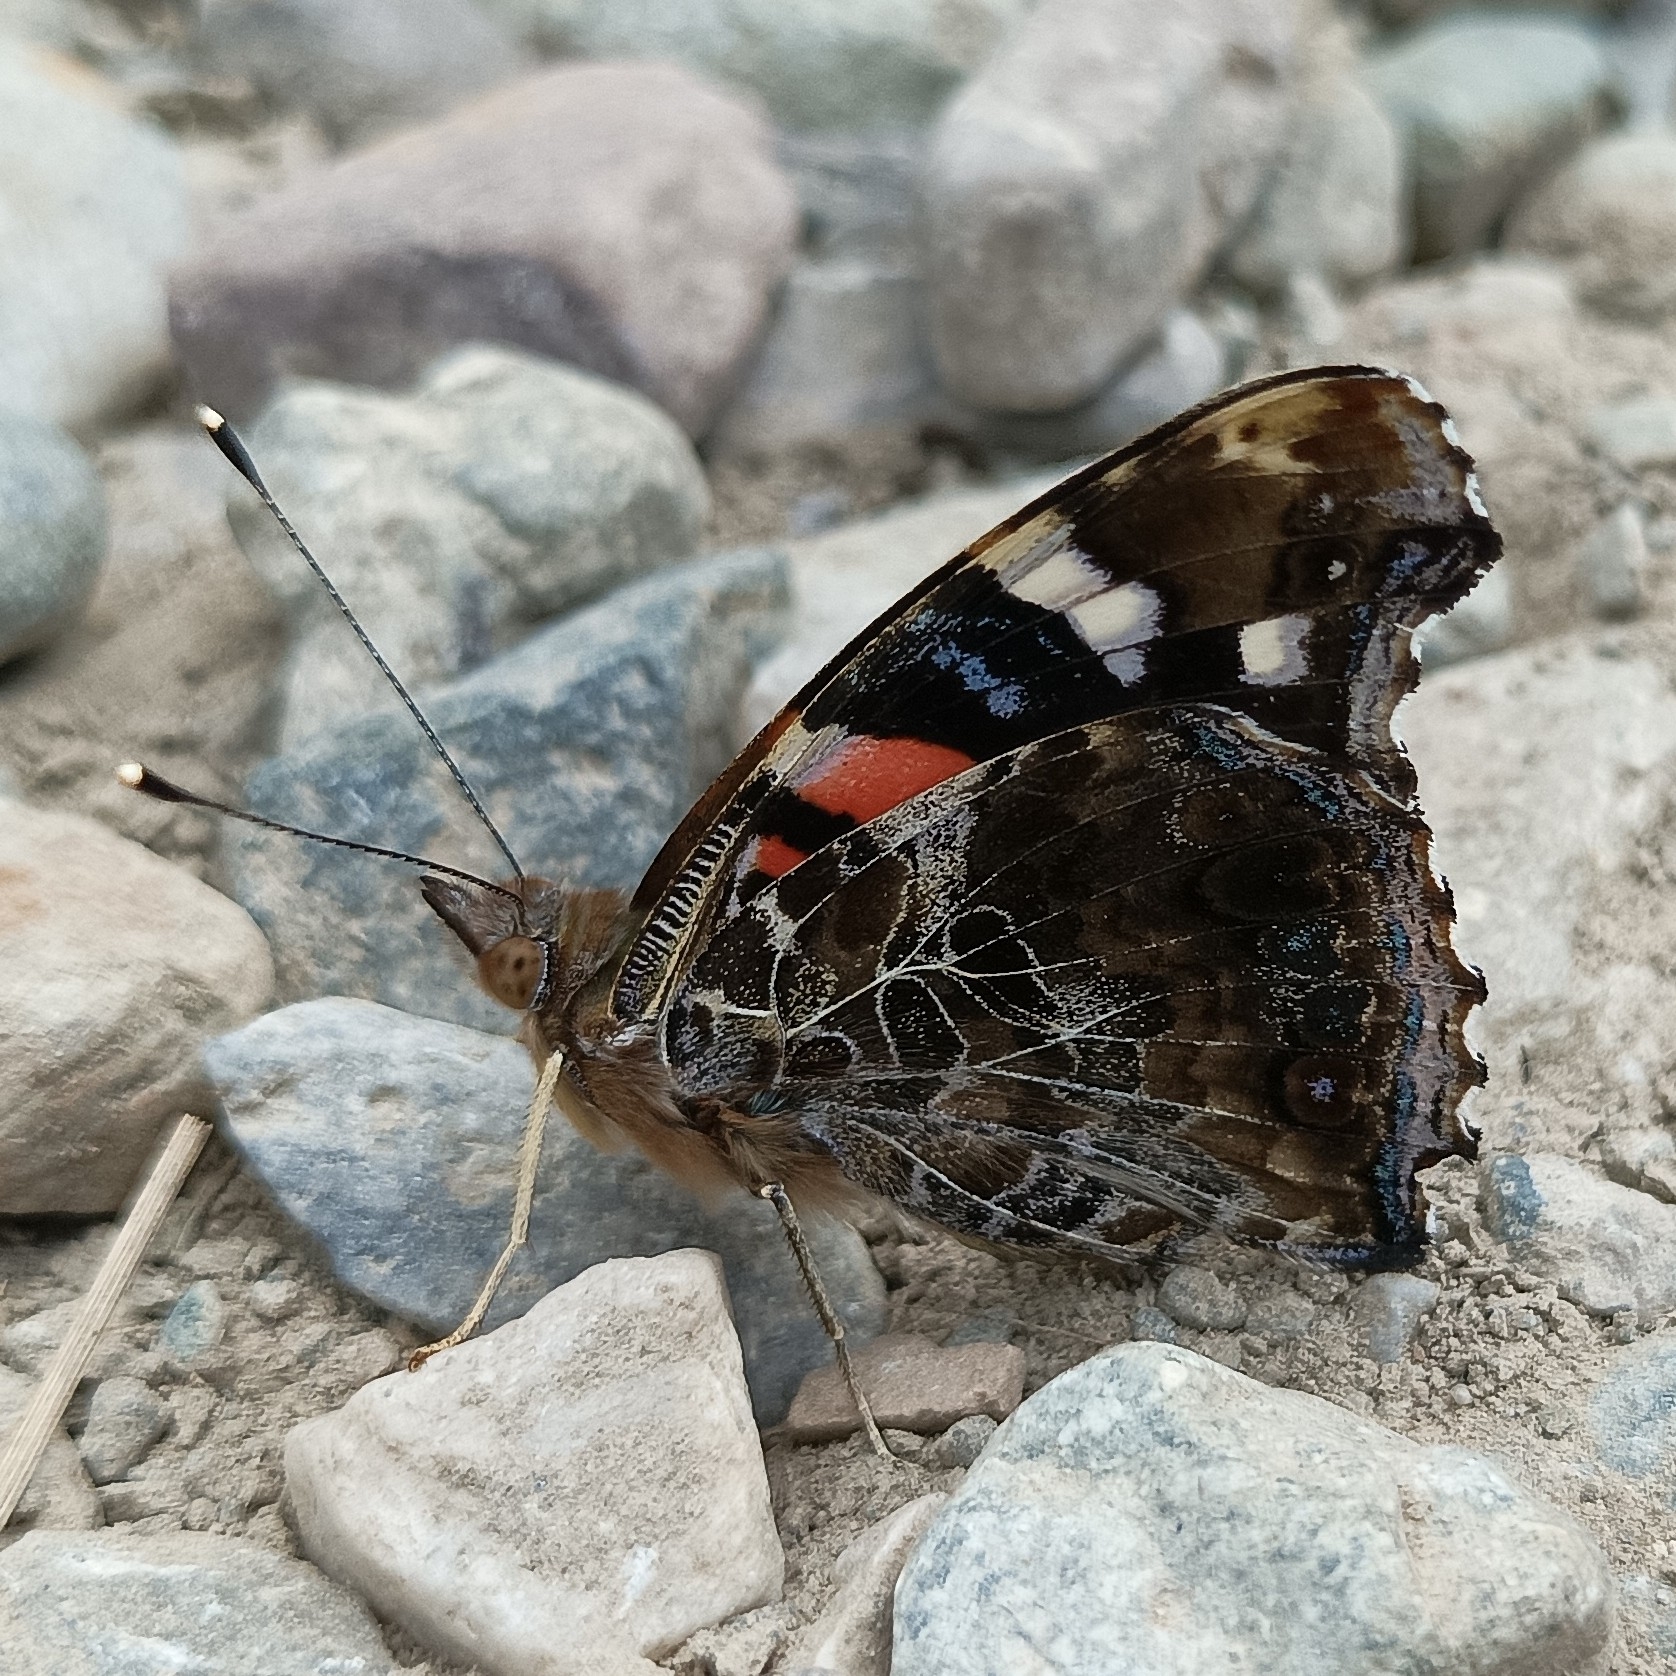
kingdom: Animalia
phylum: Arthropoda
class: Insecta
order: Lepidoptera
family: Nymphalidae
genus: Vanessa
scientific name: Vanessa indica
